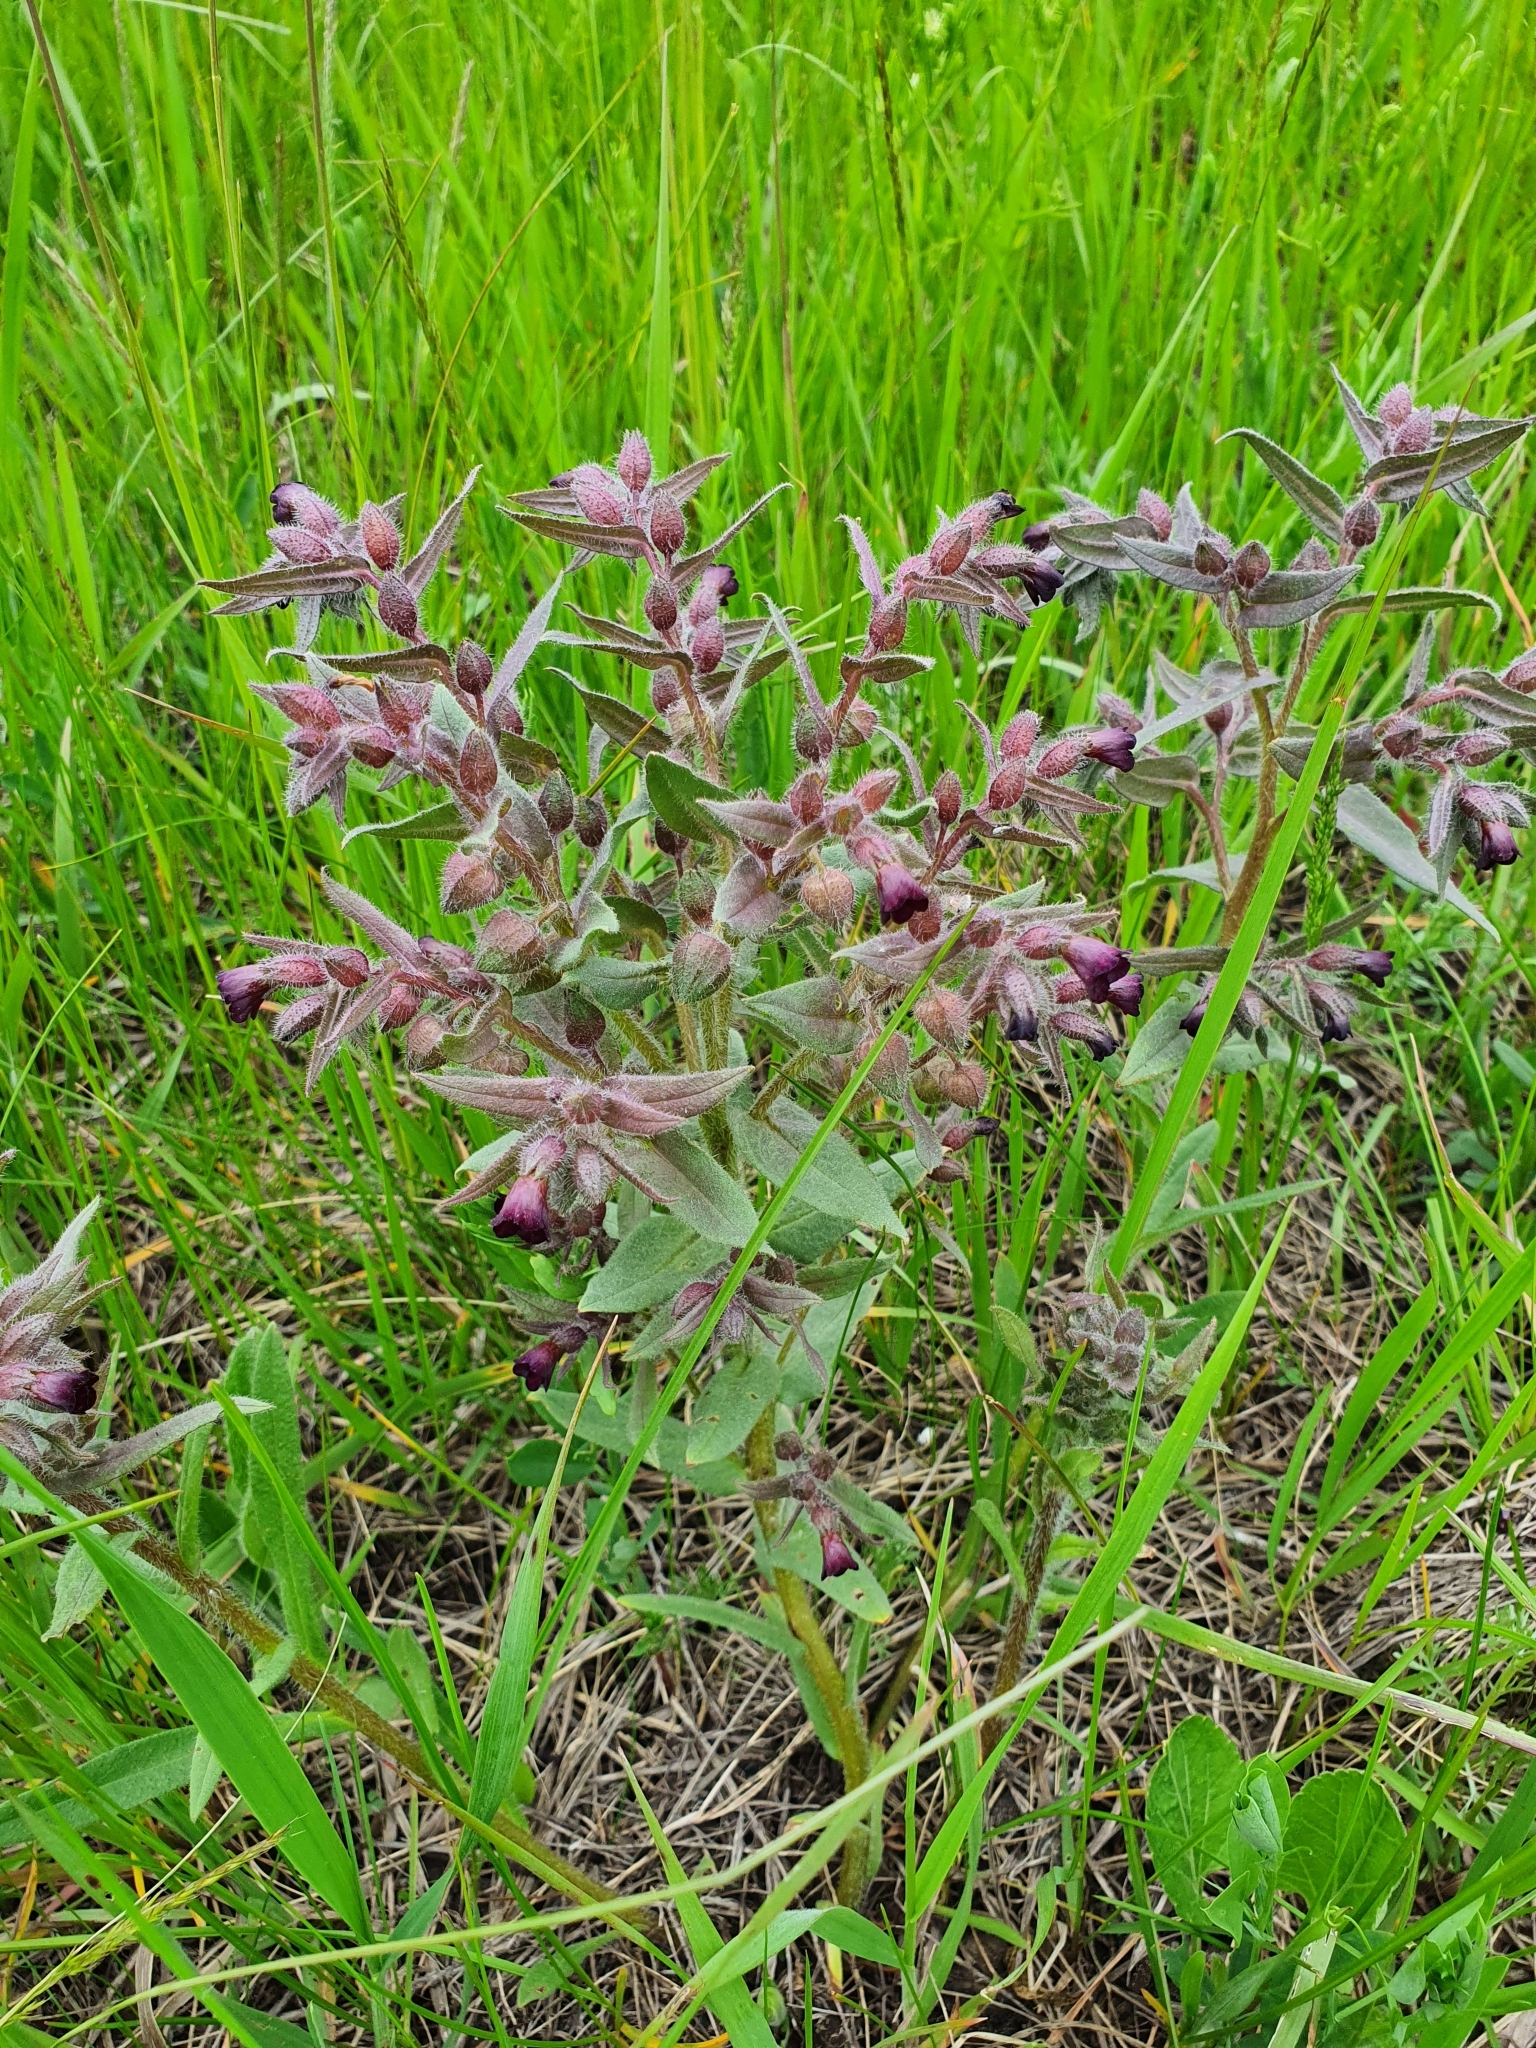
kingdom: Plantae
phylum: Tracheophyta
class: Magnoliopsida
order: Boraginales
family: Boraginaceae
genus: Nonea
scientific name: Nonea pulla
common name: Brown nonea
